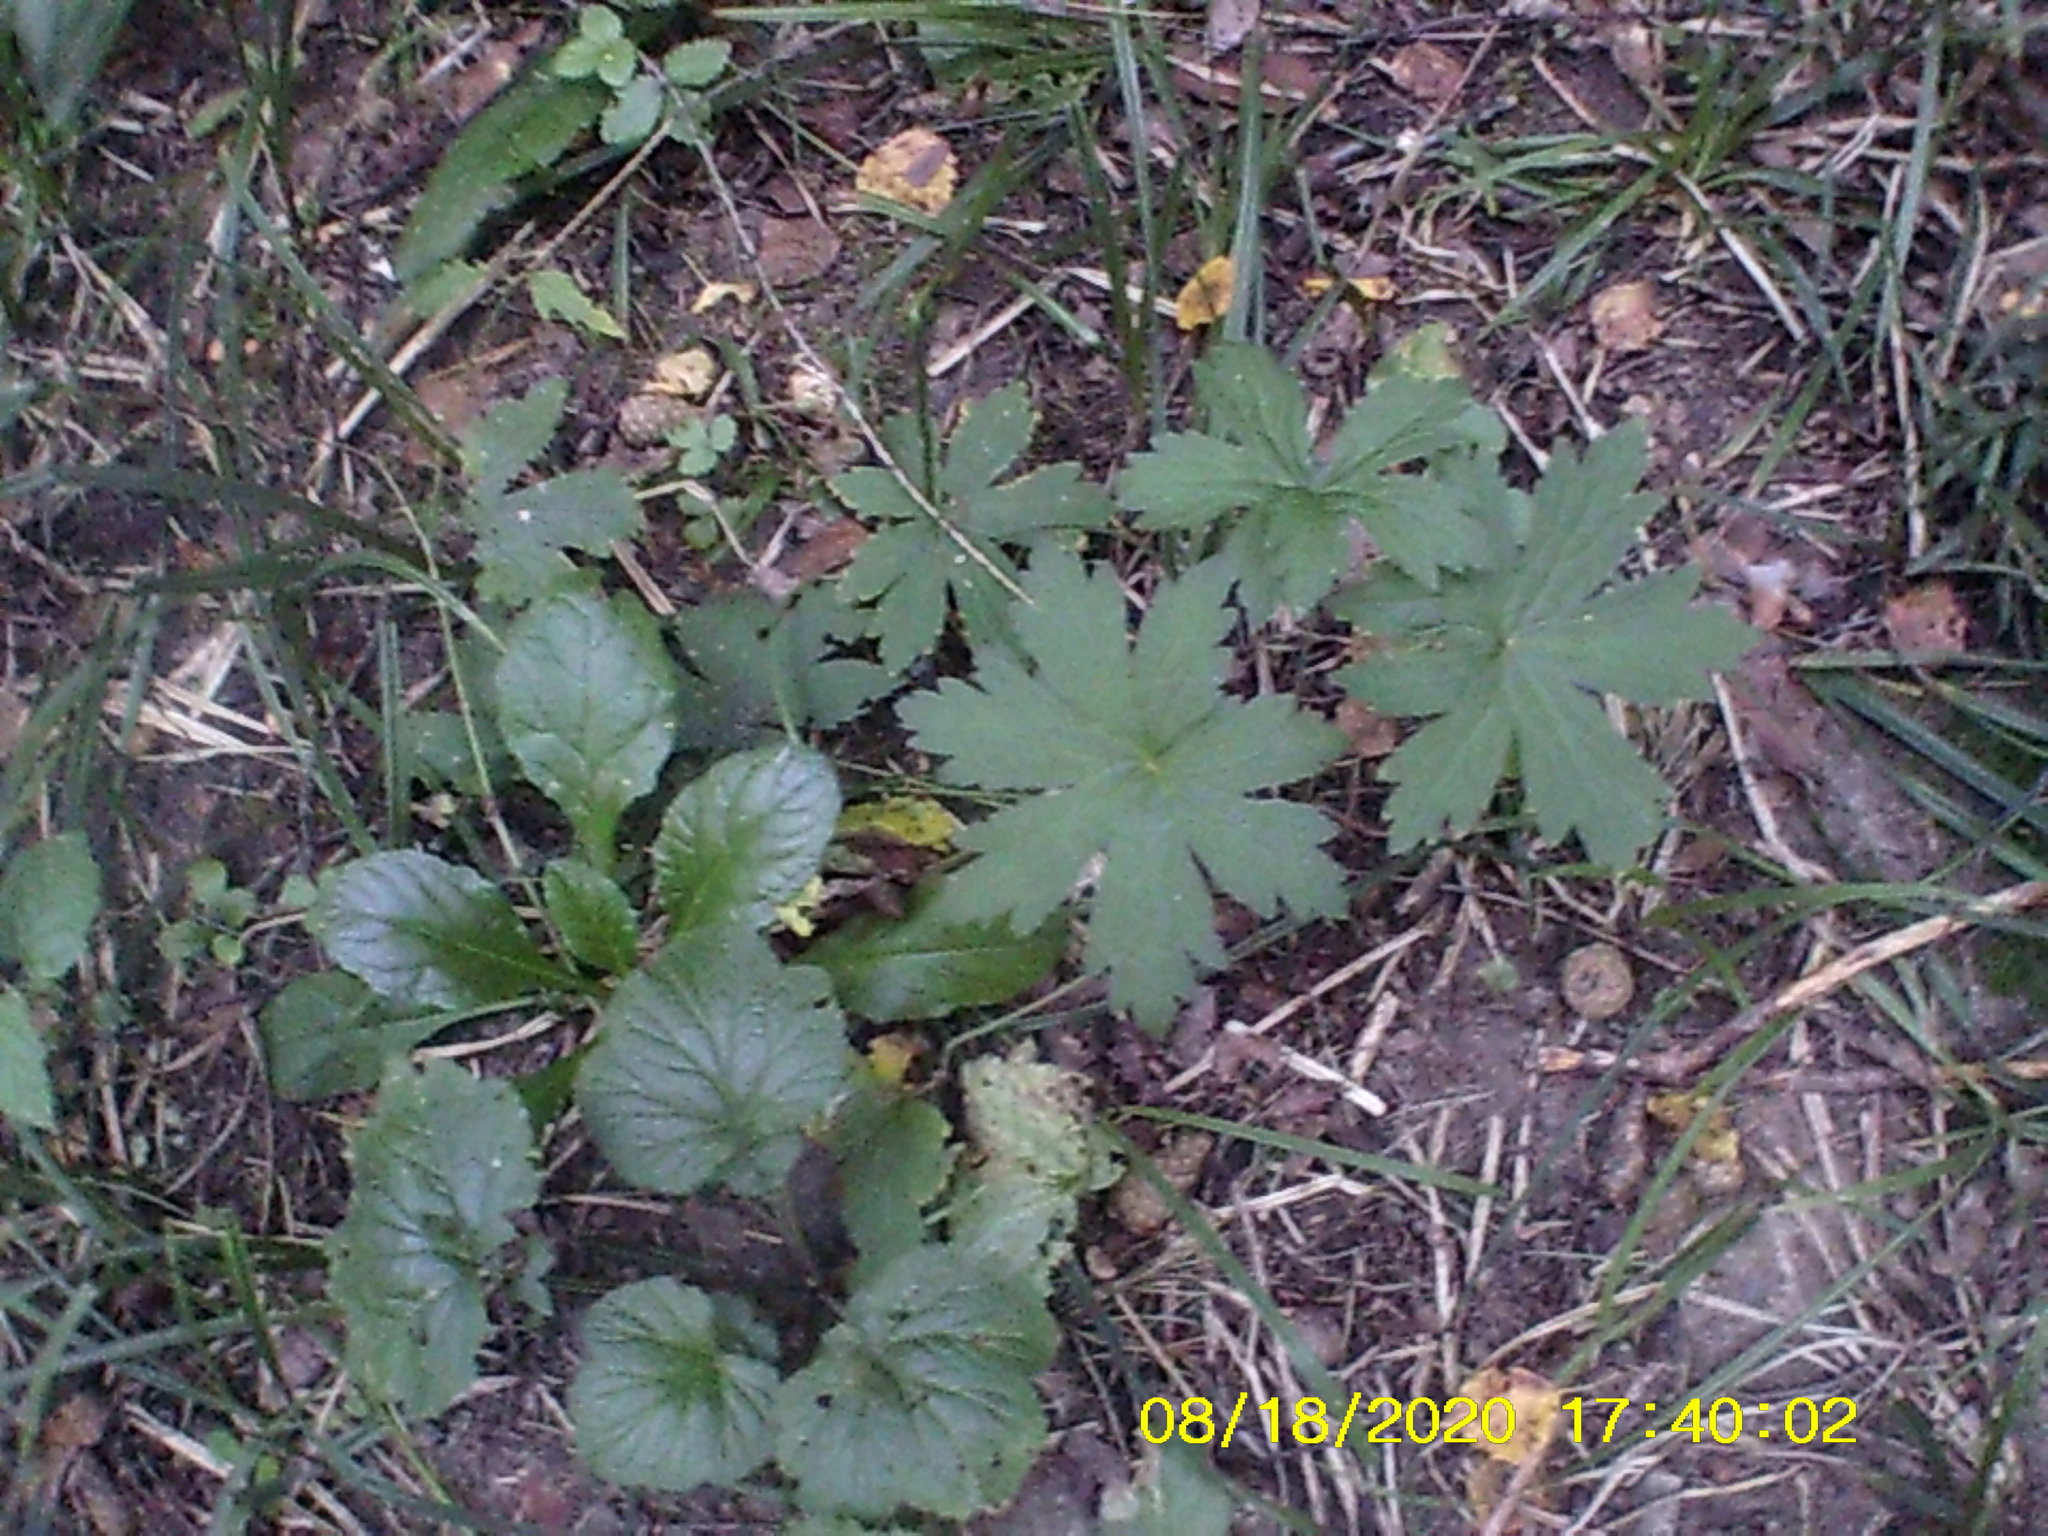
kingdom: Plantae
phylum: Tracheophyta
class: Magnoliopsida
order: Geraniales
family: Geraniaceae
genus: Geranium
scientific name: Geranium sylvaticum
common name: Wood crane's-bill
